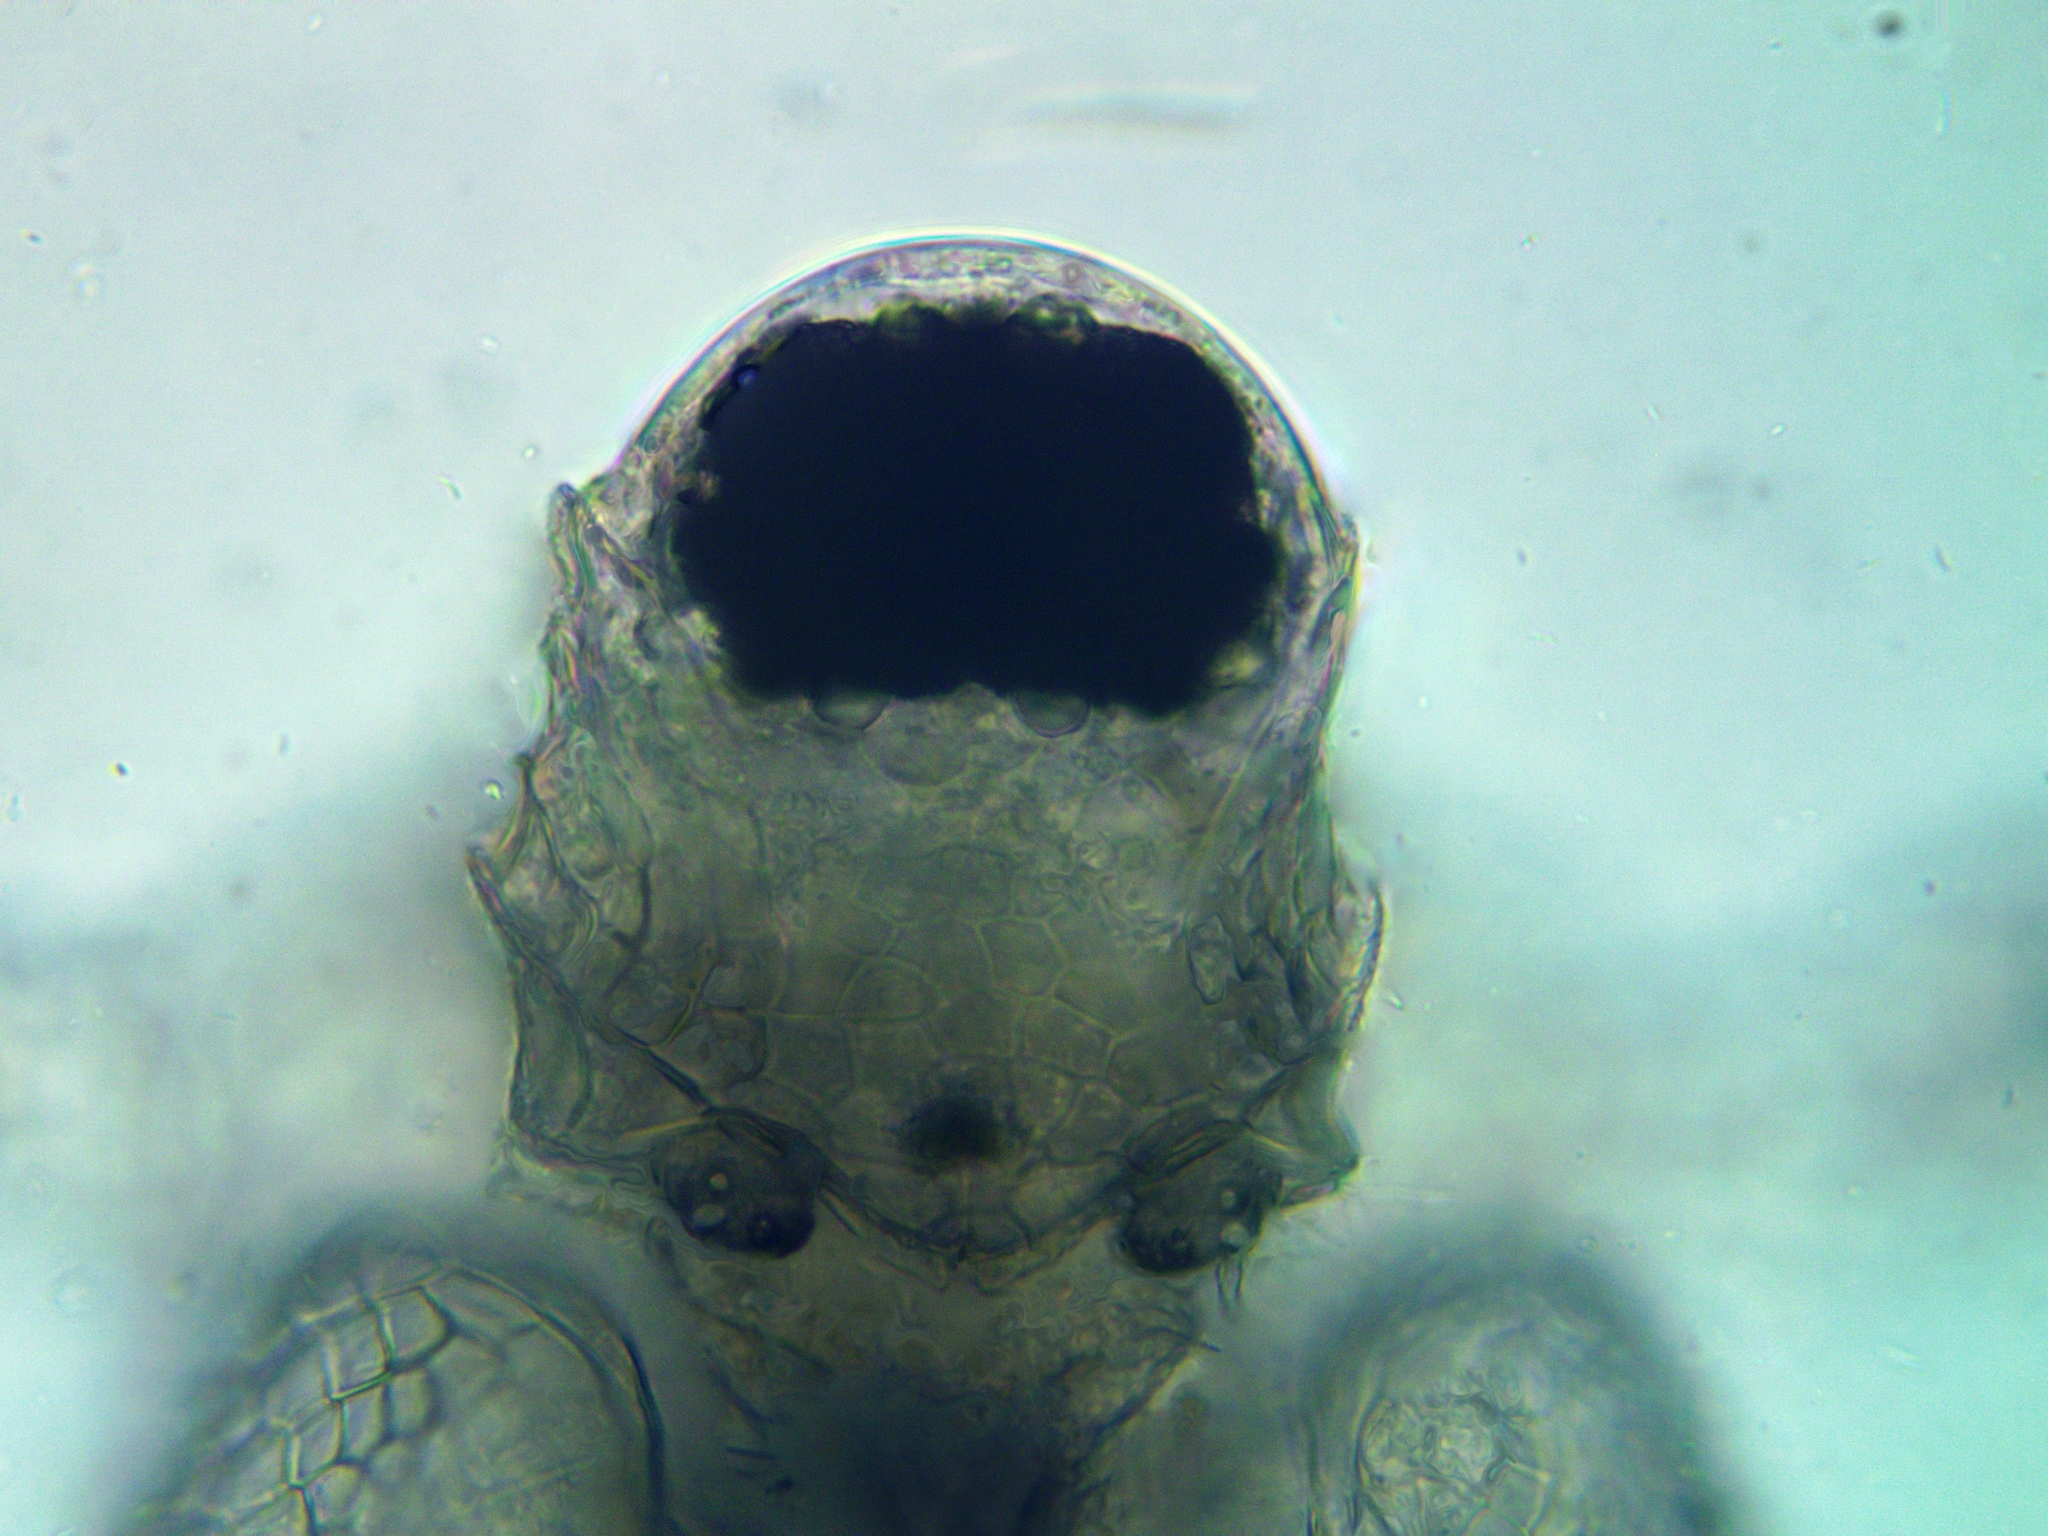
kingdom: Animalia
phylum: Arthropoda
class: Branchiopoda
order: Diplostraca
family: Daphniidae
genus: Scapholeberis
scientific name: Scapholeberis rammneri
